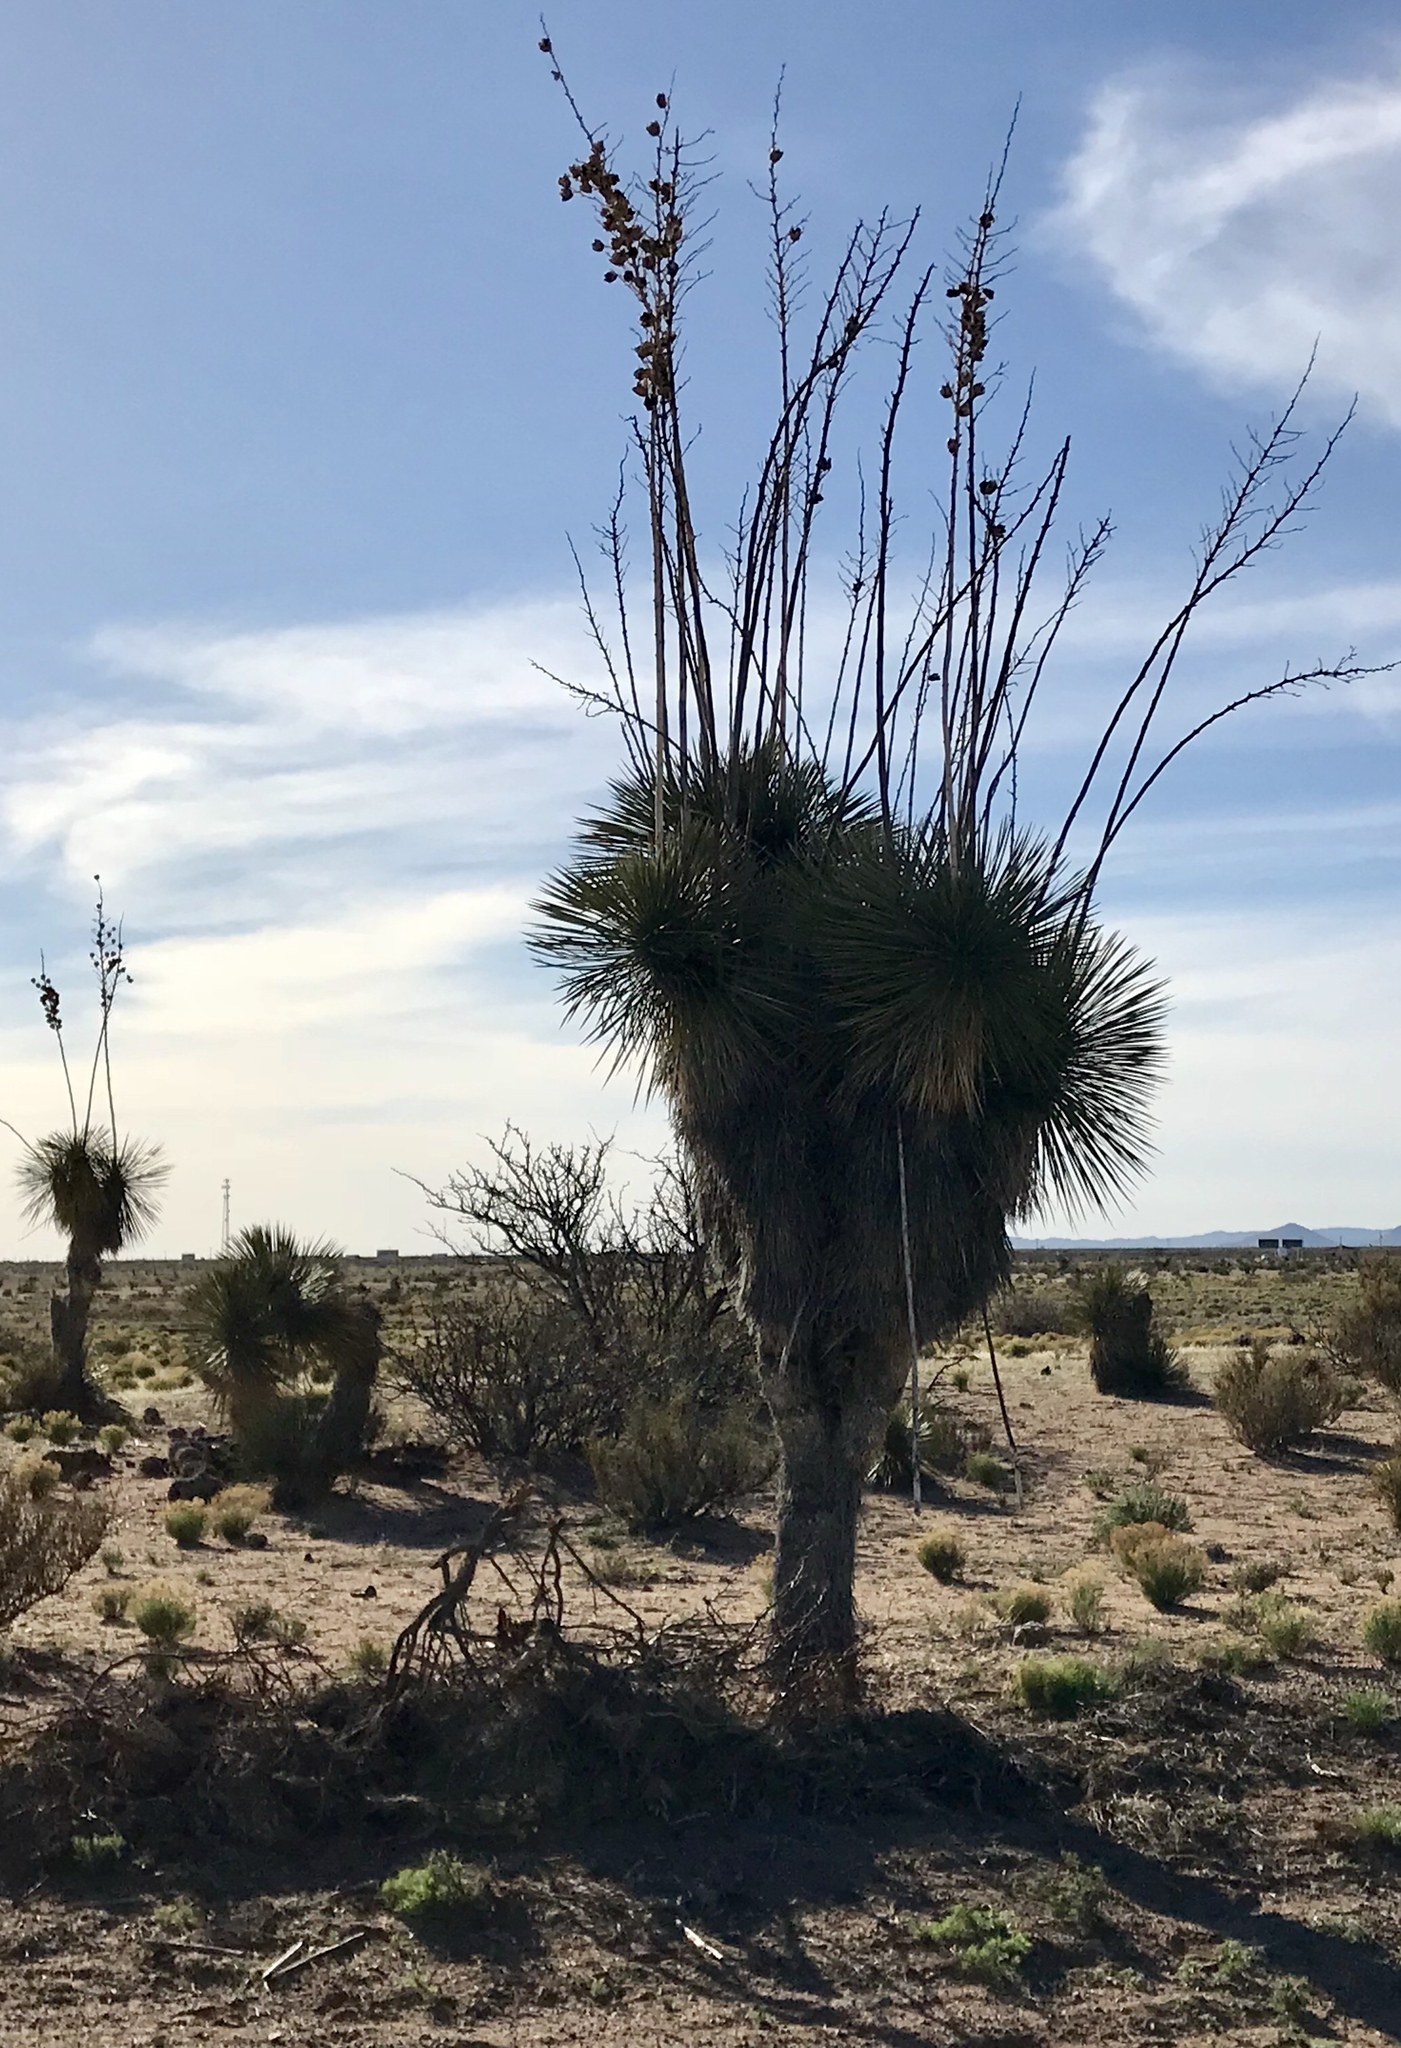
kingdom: Plantae
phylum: Tracheophyta
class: Liliopsida
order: Asparagales
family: Asparagaceae
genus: Yucca
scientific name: Yucca elata
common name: Palmella
